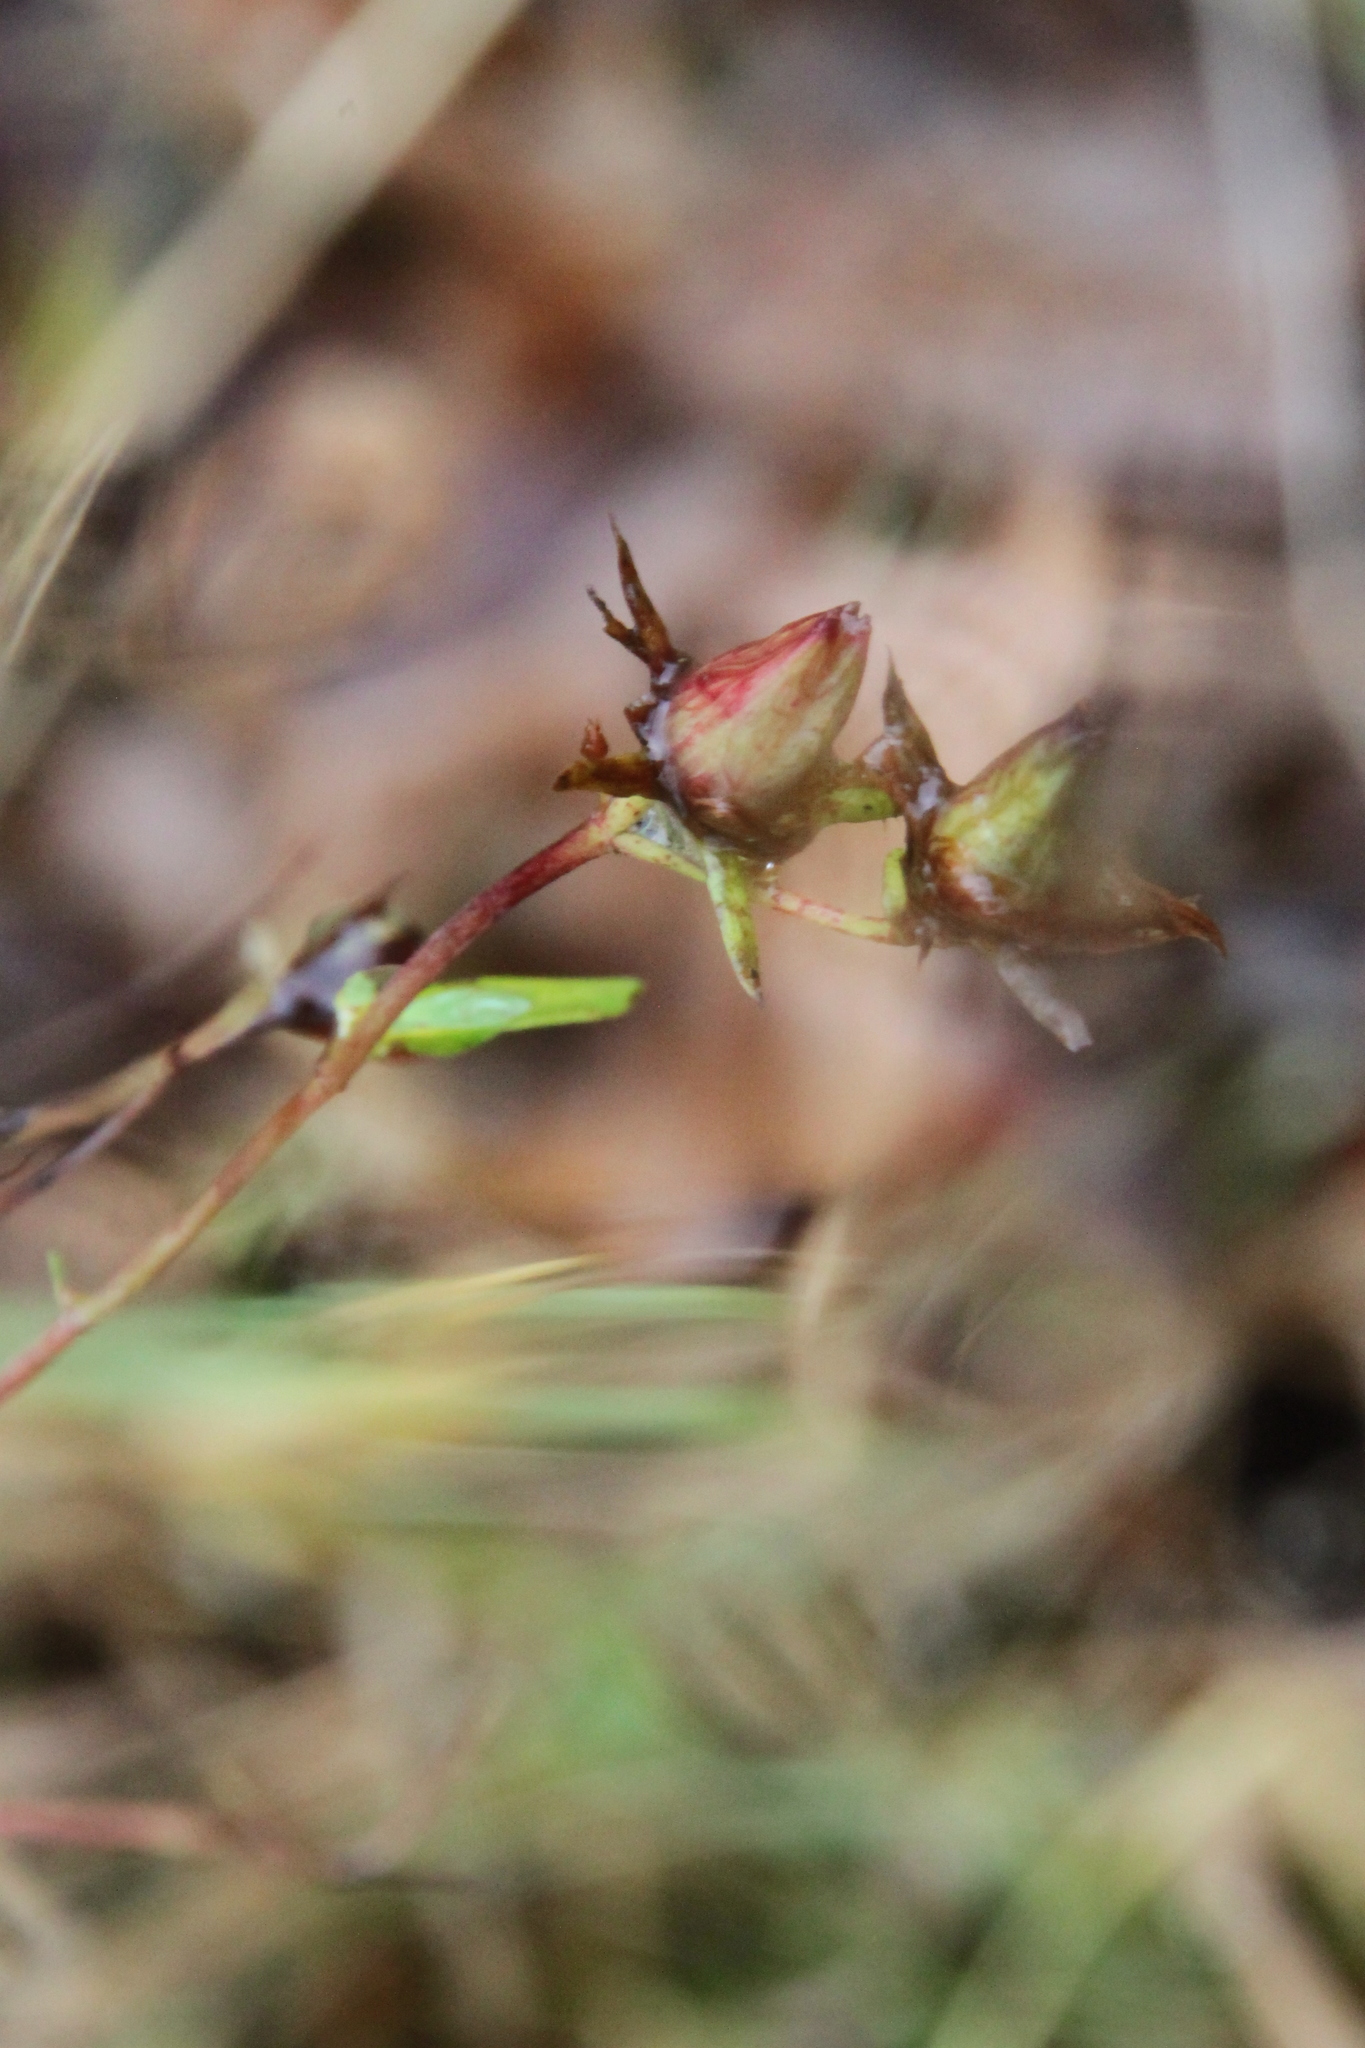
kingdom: Plantae
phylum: Tracheophyta
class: Magnoliopsida
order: Malpighiales
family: Hypericaceae
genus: Hypericum
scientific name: Hypericum perforatum
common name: Common st. johnswort
